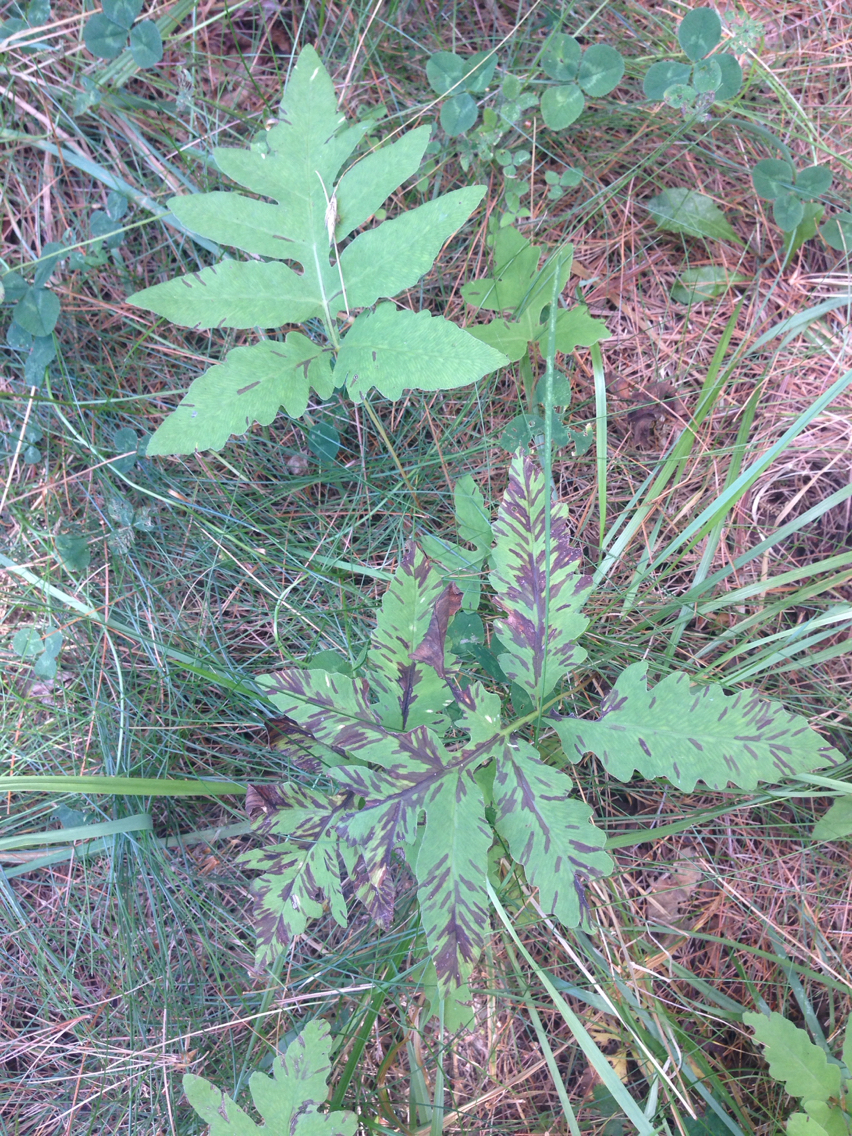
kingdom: Plantae
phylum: Tracheophyta
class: Polypodiopsida
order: Polypodiales
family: Onocleaceae
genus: Onoclea
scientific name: Onoclea sensibilis
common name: Sensitive fern
